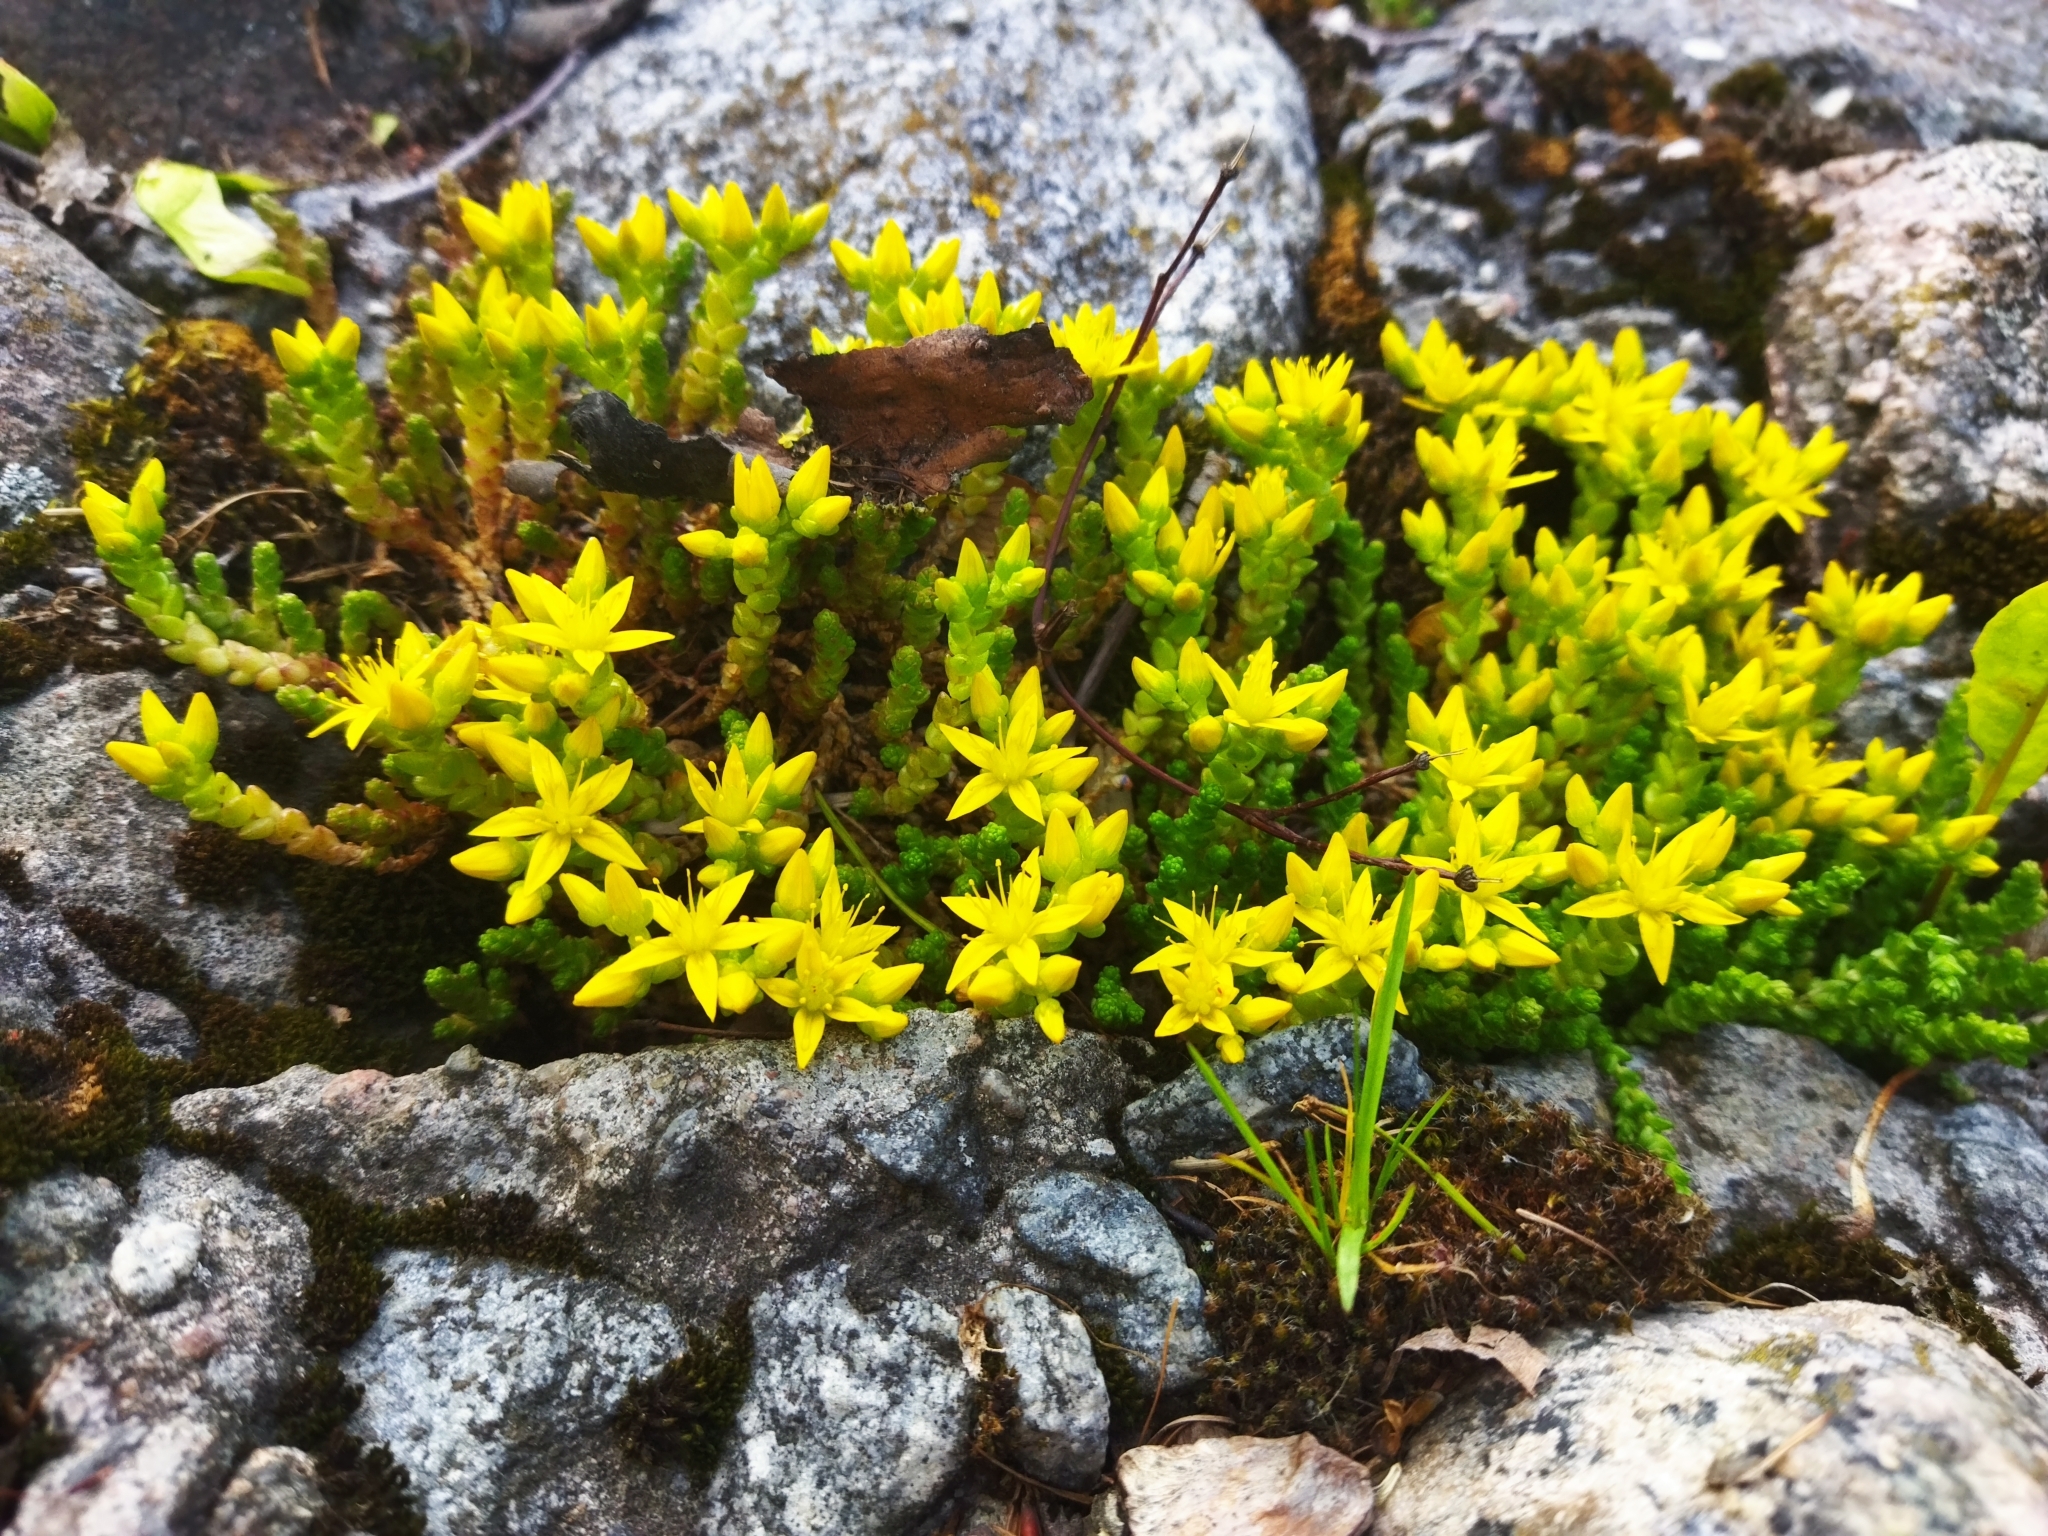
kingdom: Plantae
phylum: Tracheophyta
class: Magnoliopsida
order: Saxifragales
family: Crassulaceae
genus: Sedum
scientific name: Sedum acre
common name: Biting stonecrop
